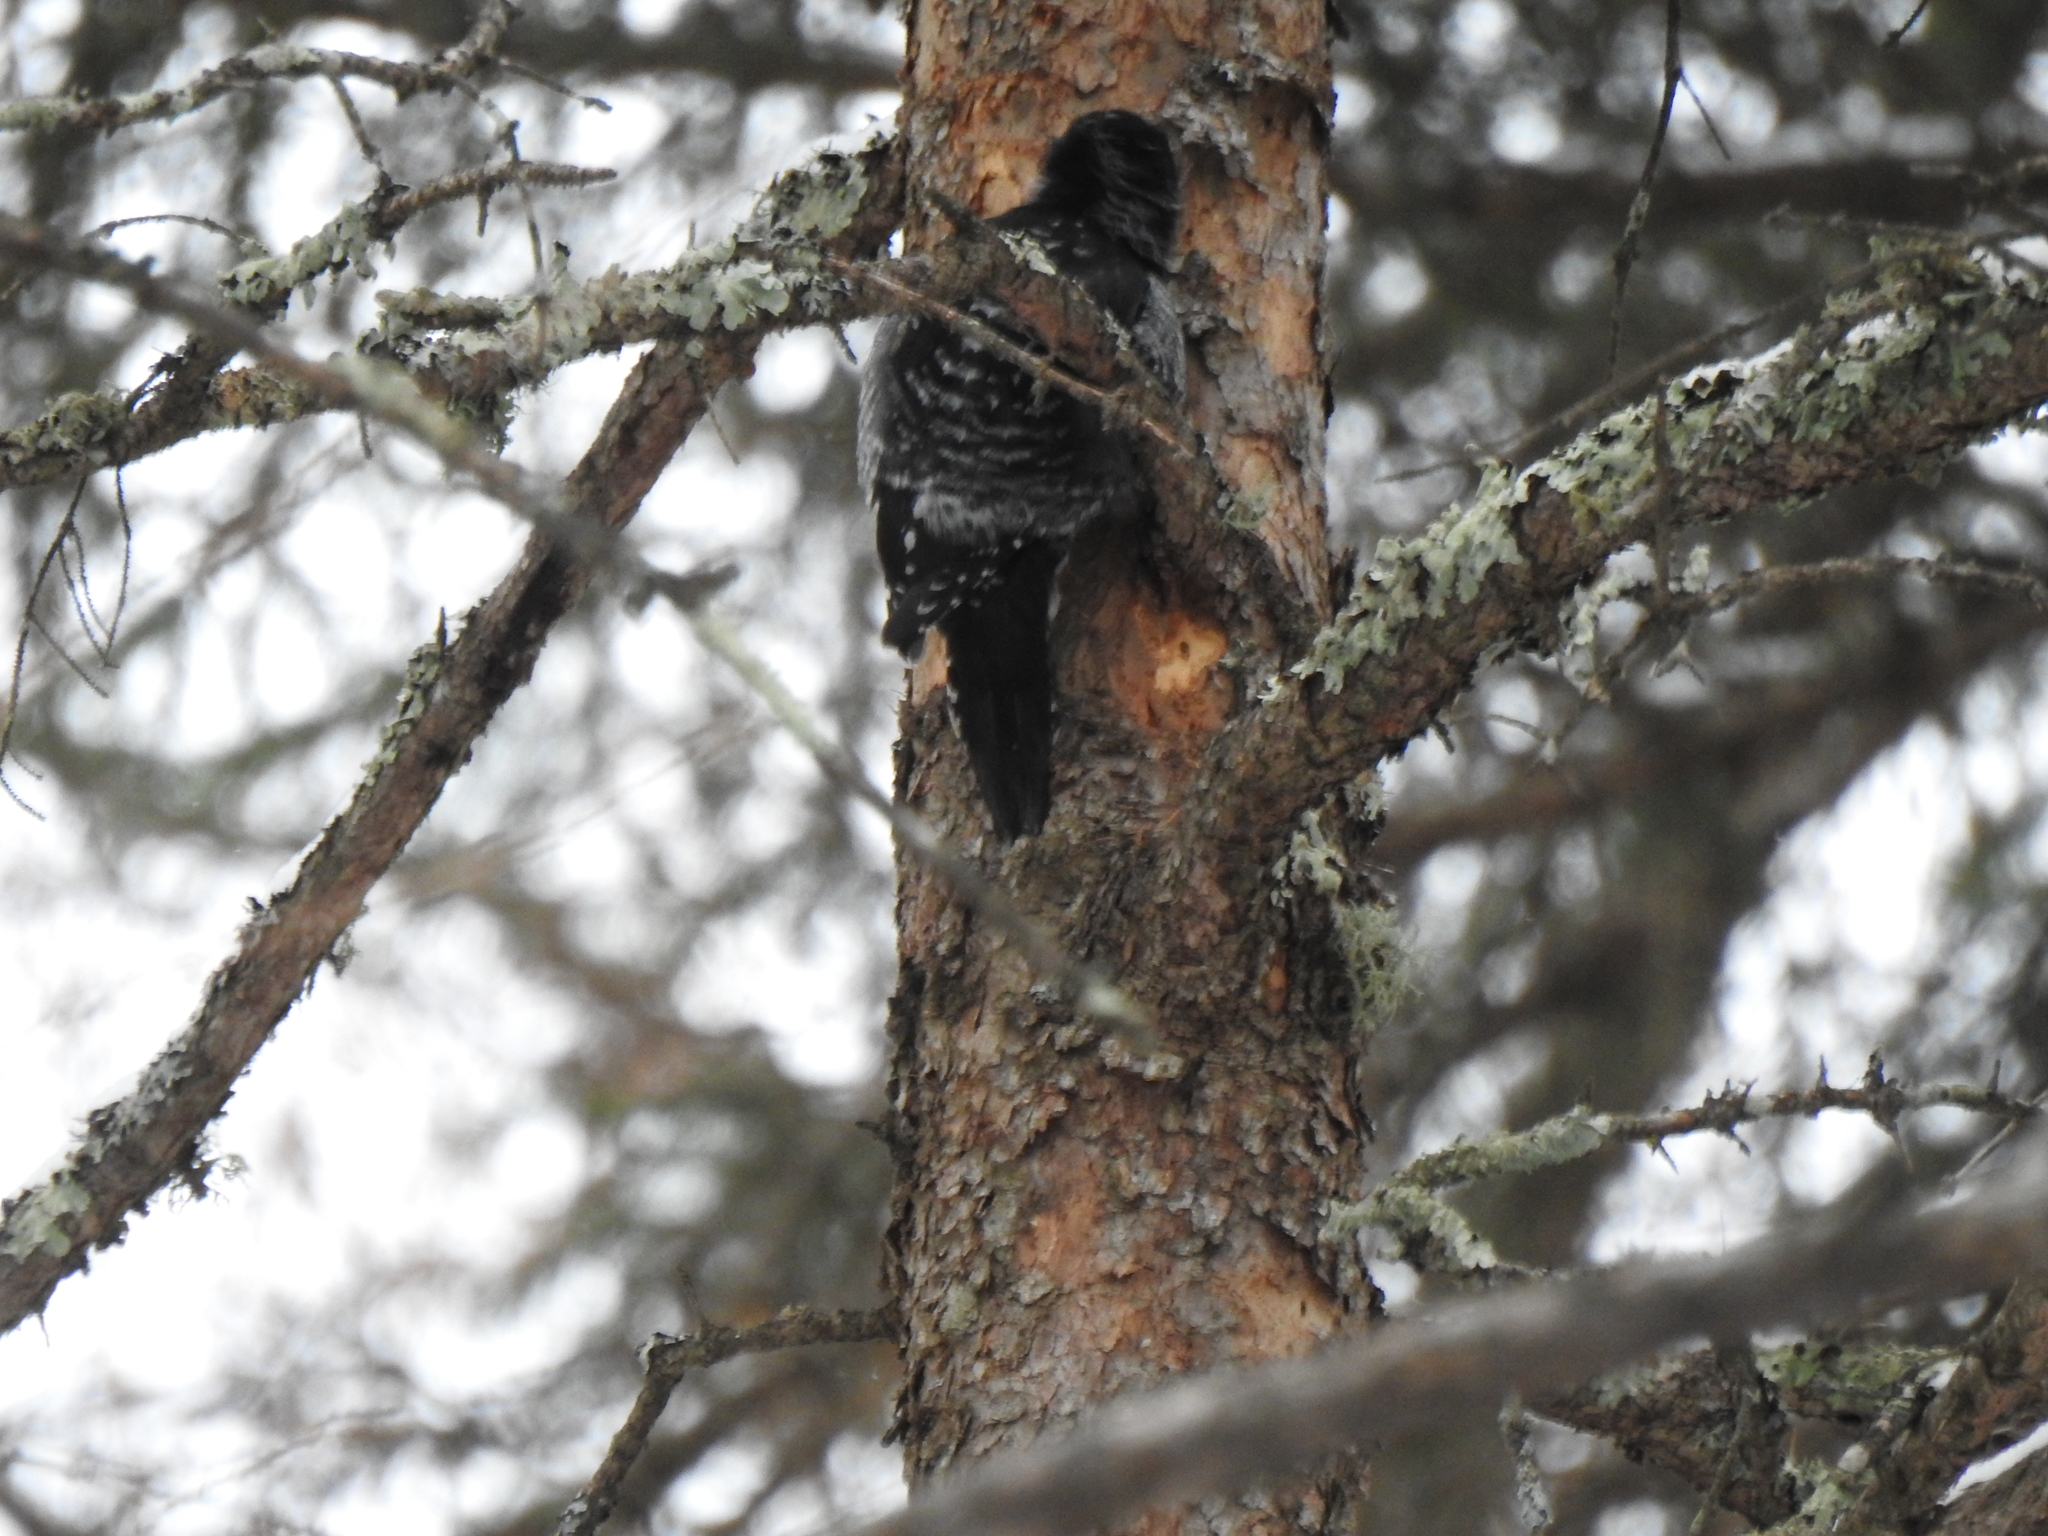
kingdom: Animalia
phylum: Chordata
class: Aves
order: Piciformes
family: Picidae
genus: Picoides
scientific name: Picoides dorsalis
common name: American three-toed woodpecker
